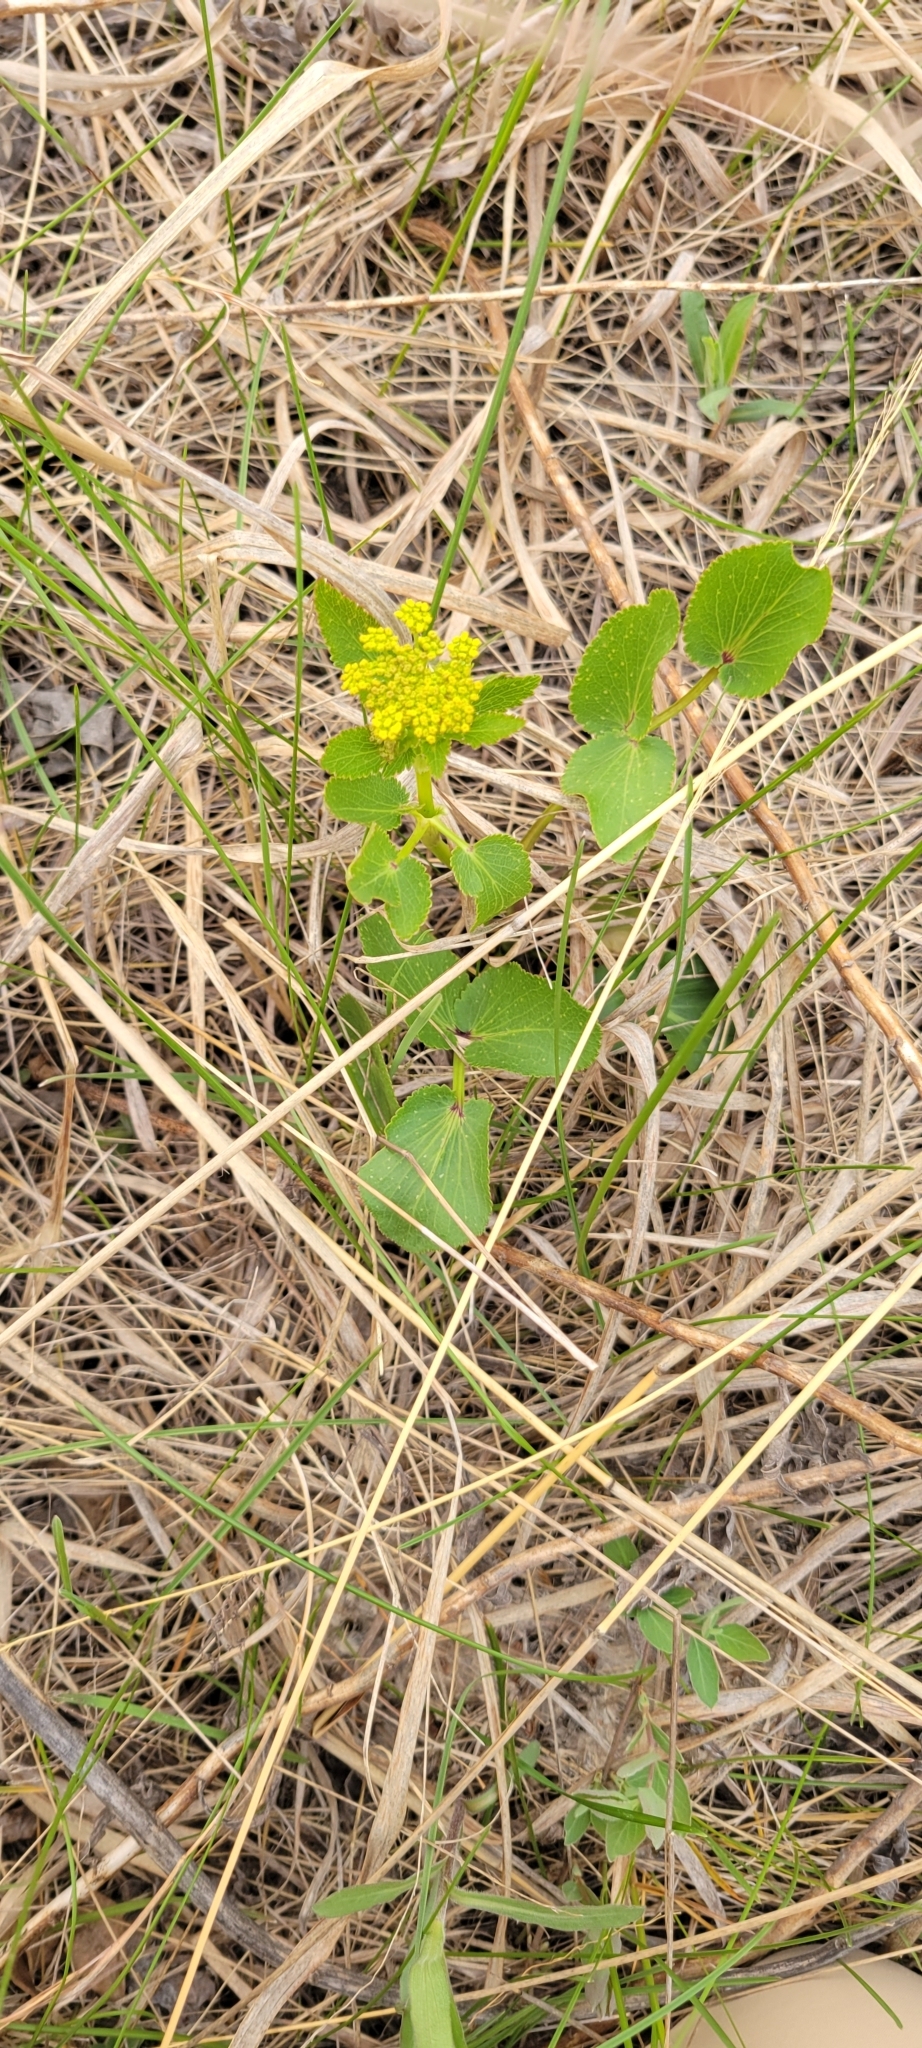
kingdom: Plantae
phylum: Tracheophyta
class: Magnoliopsida
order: Apiales
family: Apiaceae
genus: Zizia
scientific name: Zizia aptera
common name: Heart-leaved alexanders
